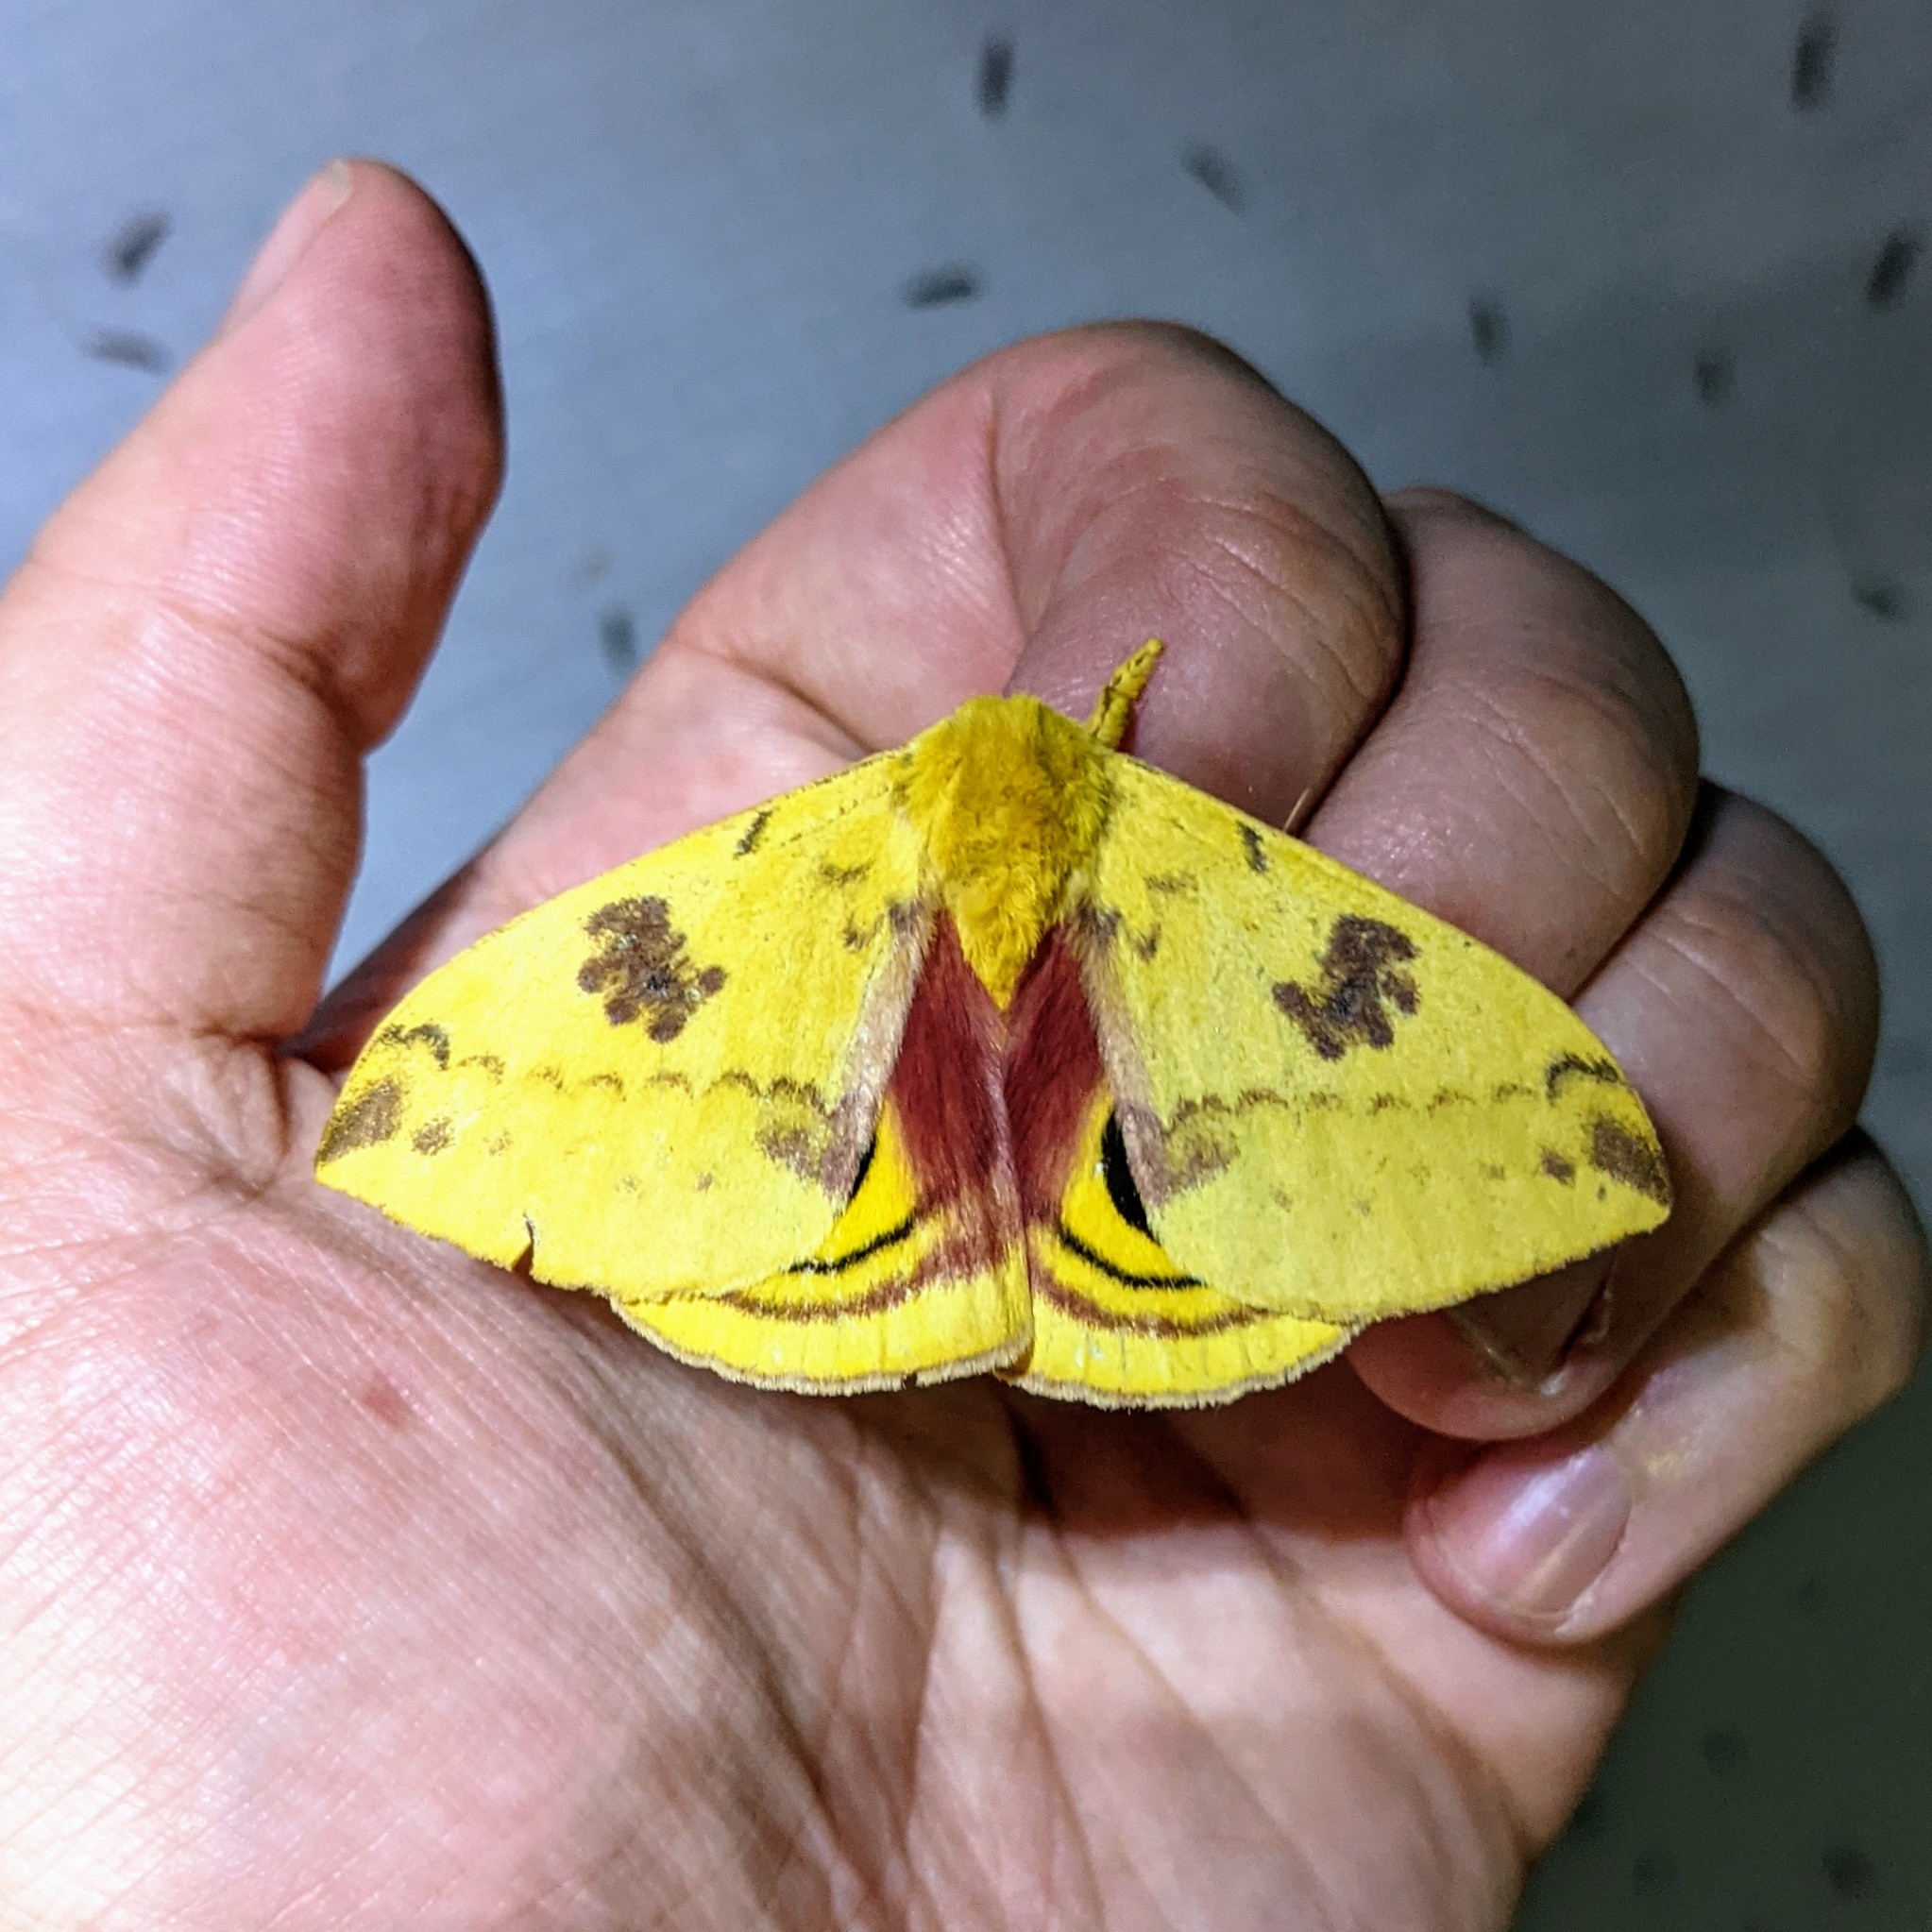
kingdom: Animalia
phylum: Arthropoda
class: Insecta
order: Lepidoptera
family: Saturniidae
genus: Automeris
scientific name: Automeris io
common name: Io moth
